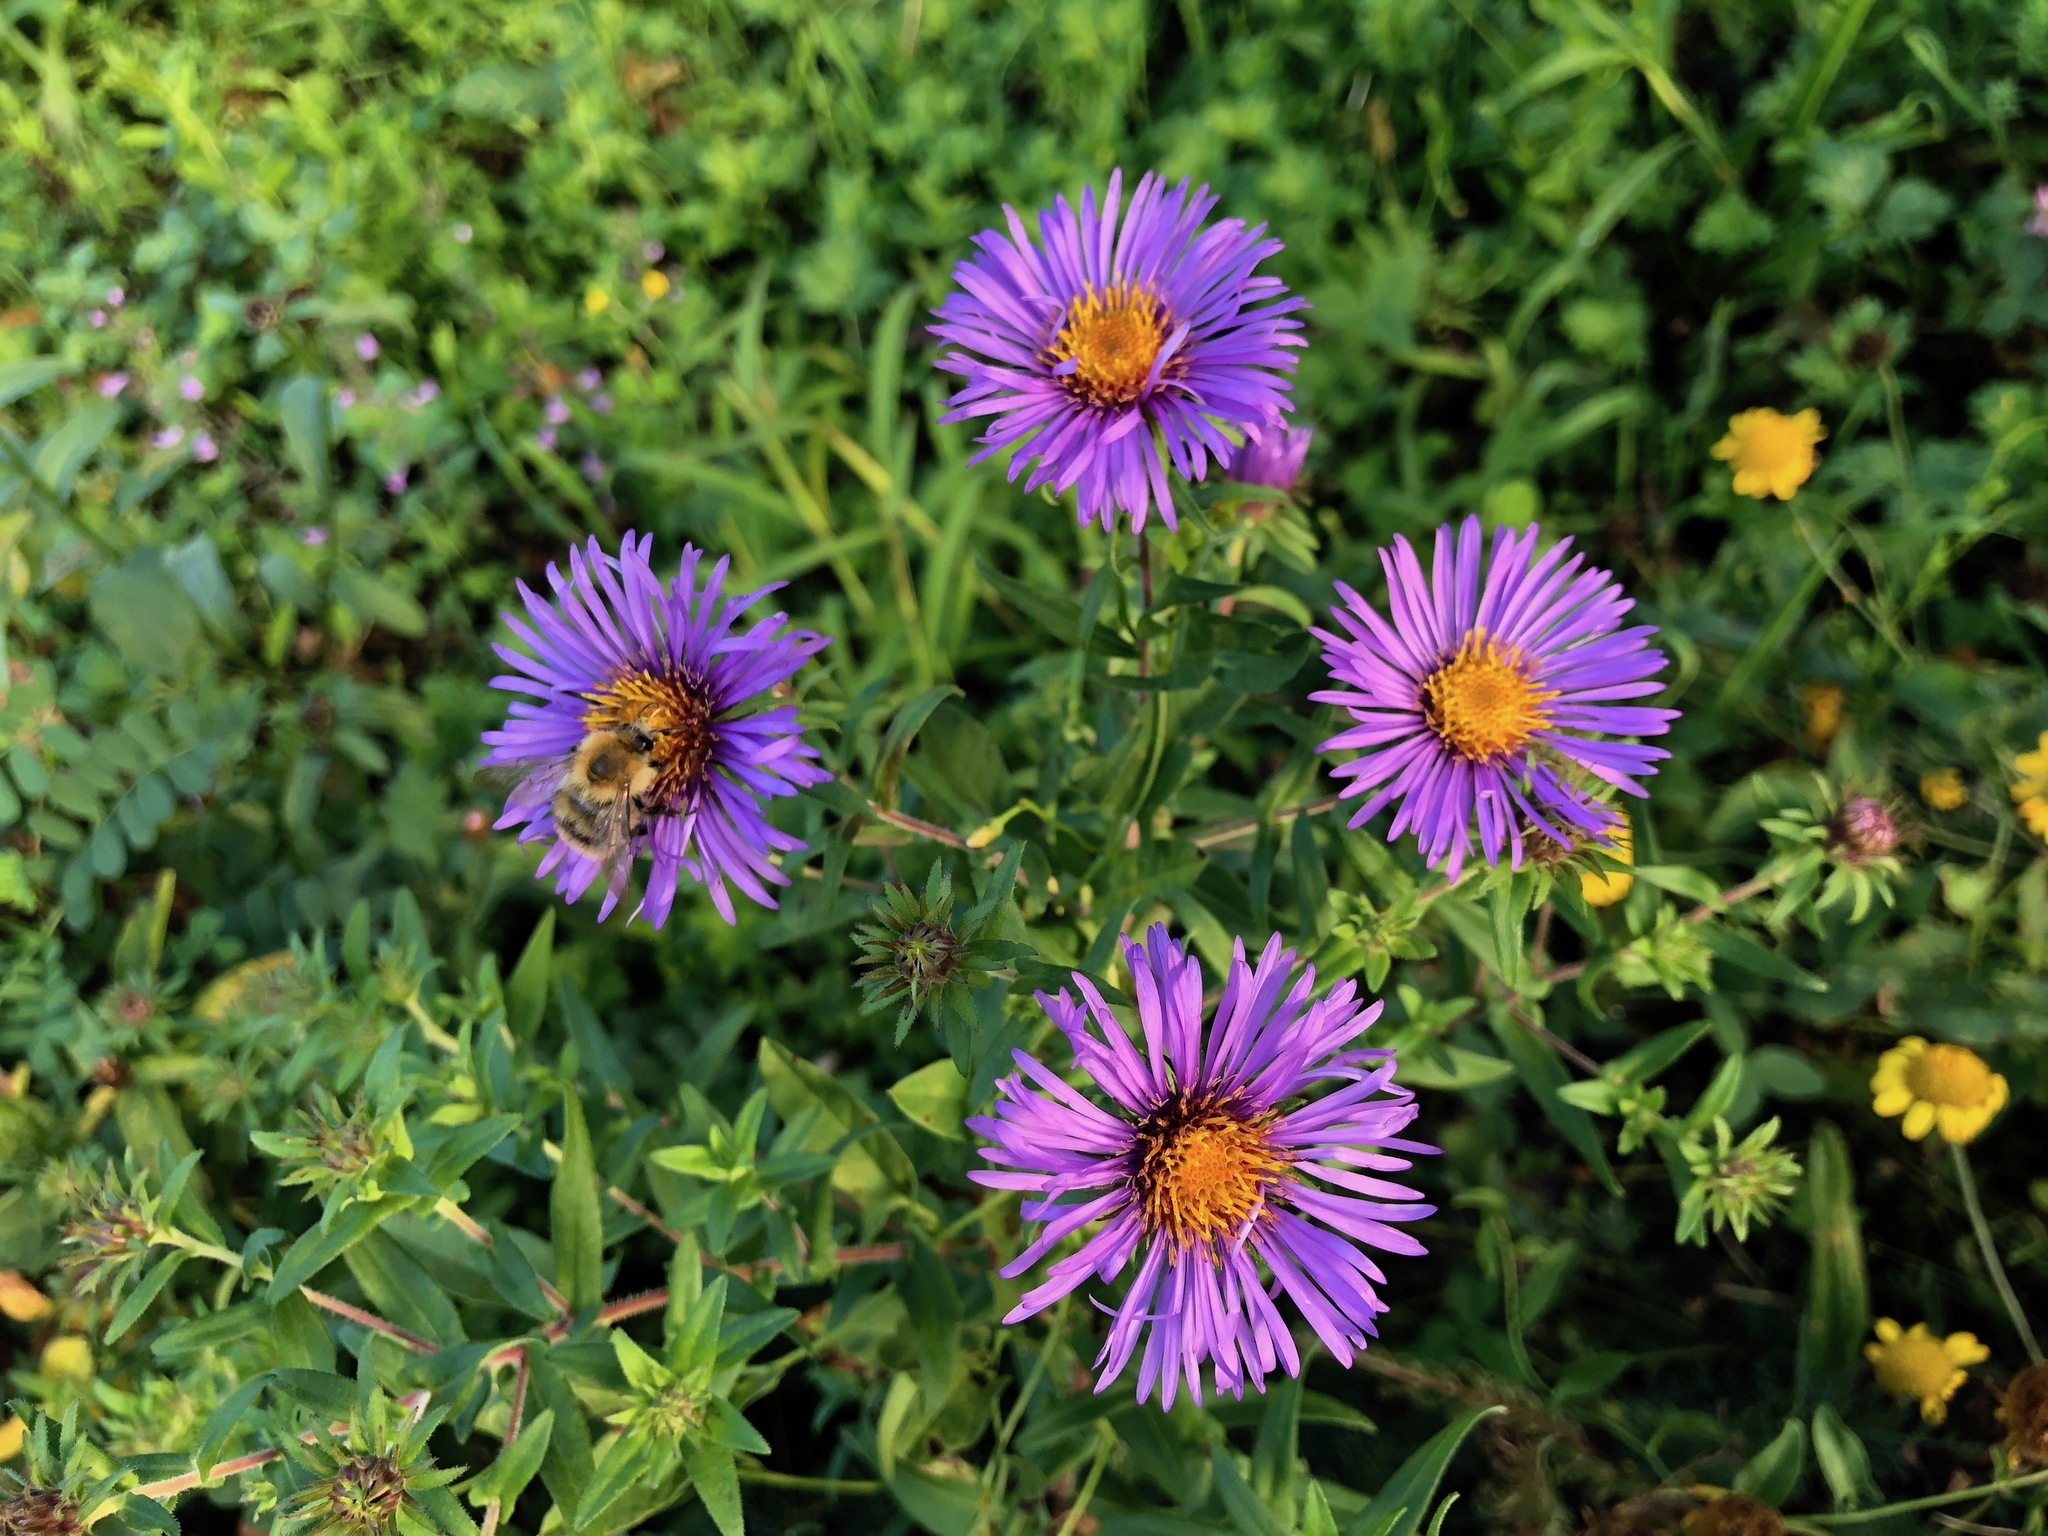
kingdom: Plantae
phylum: Tracheophyta
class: Magnoliopsida
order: Asterales
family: Asteraceae
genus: Symphyotrichum
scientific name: Symphyotrichum novae-angliae
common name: Michaelmas daisy
